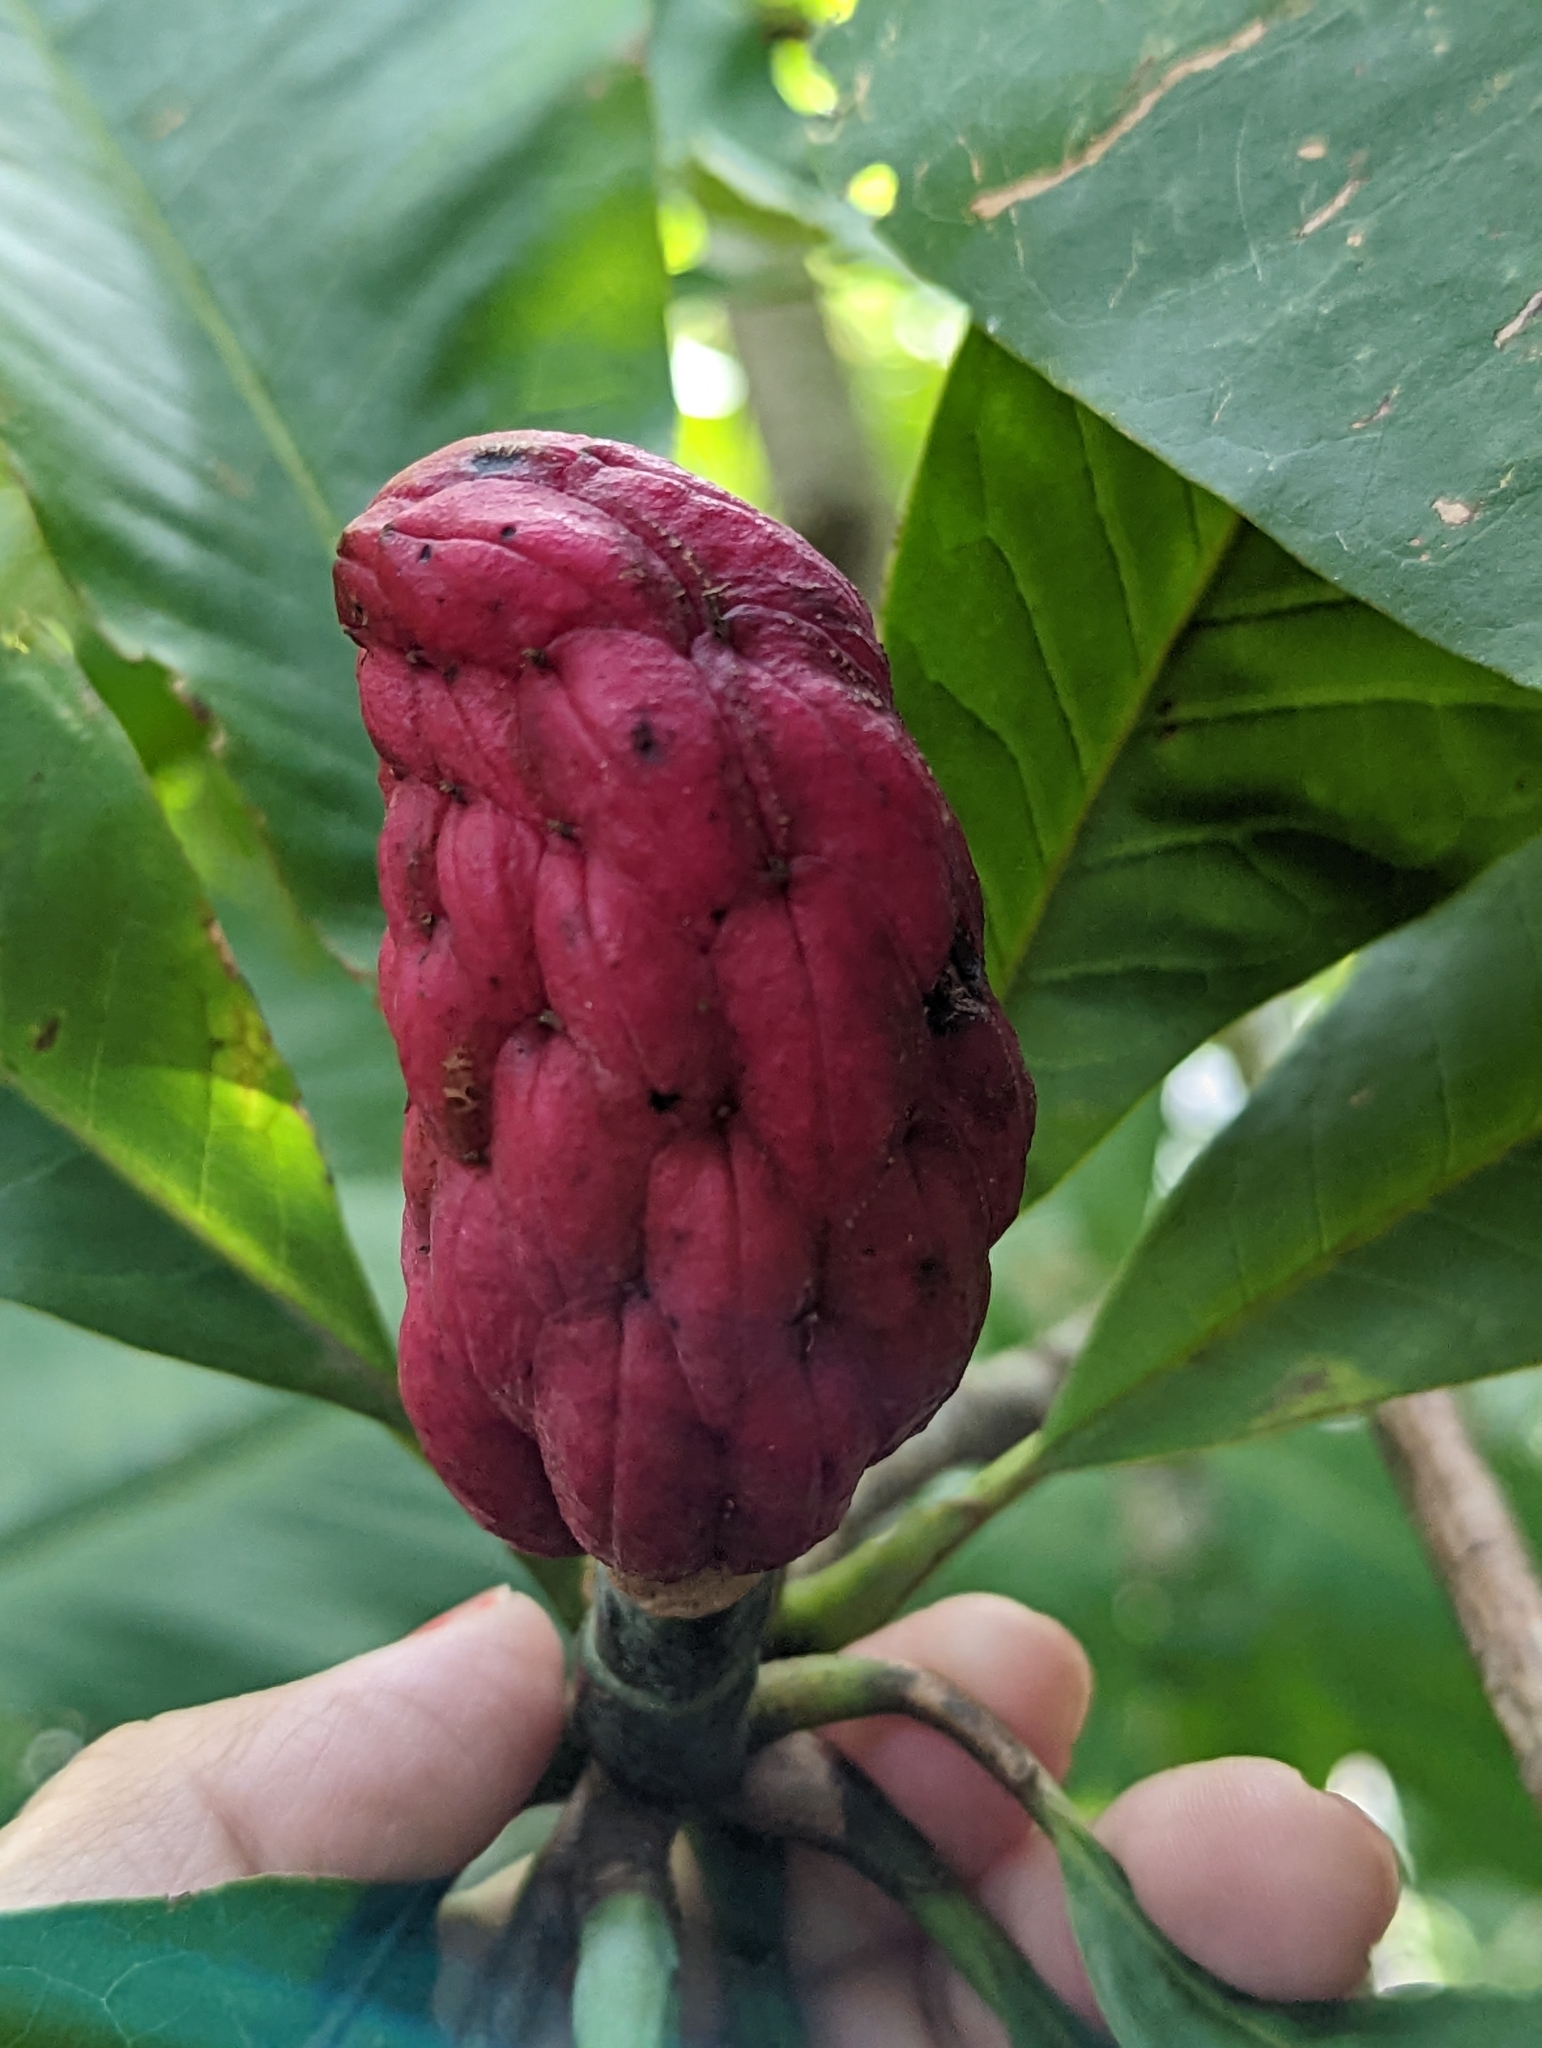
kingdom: Plantae
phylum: Tracheophyta
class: Magnoliopsida
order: Magnoliales
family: Magnoliaceae
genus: Magnolia
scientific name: Magnolia tripetala
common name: Umbrella magnolia
